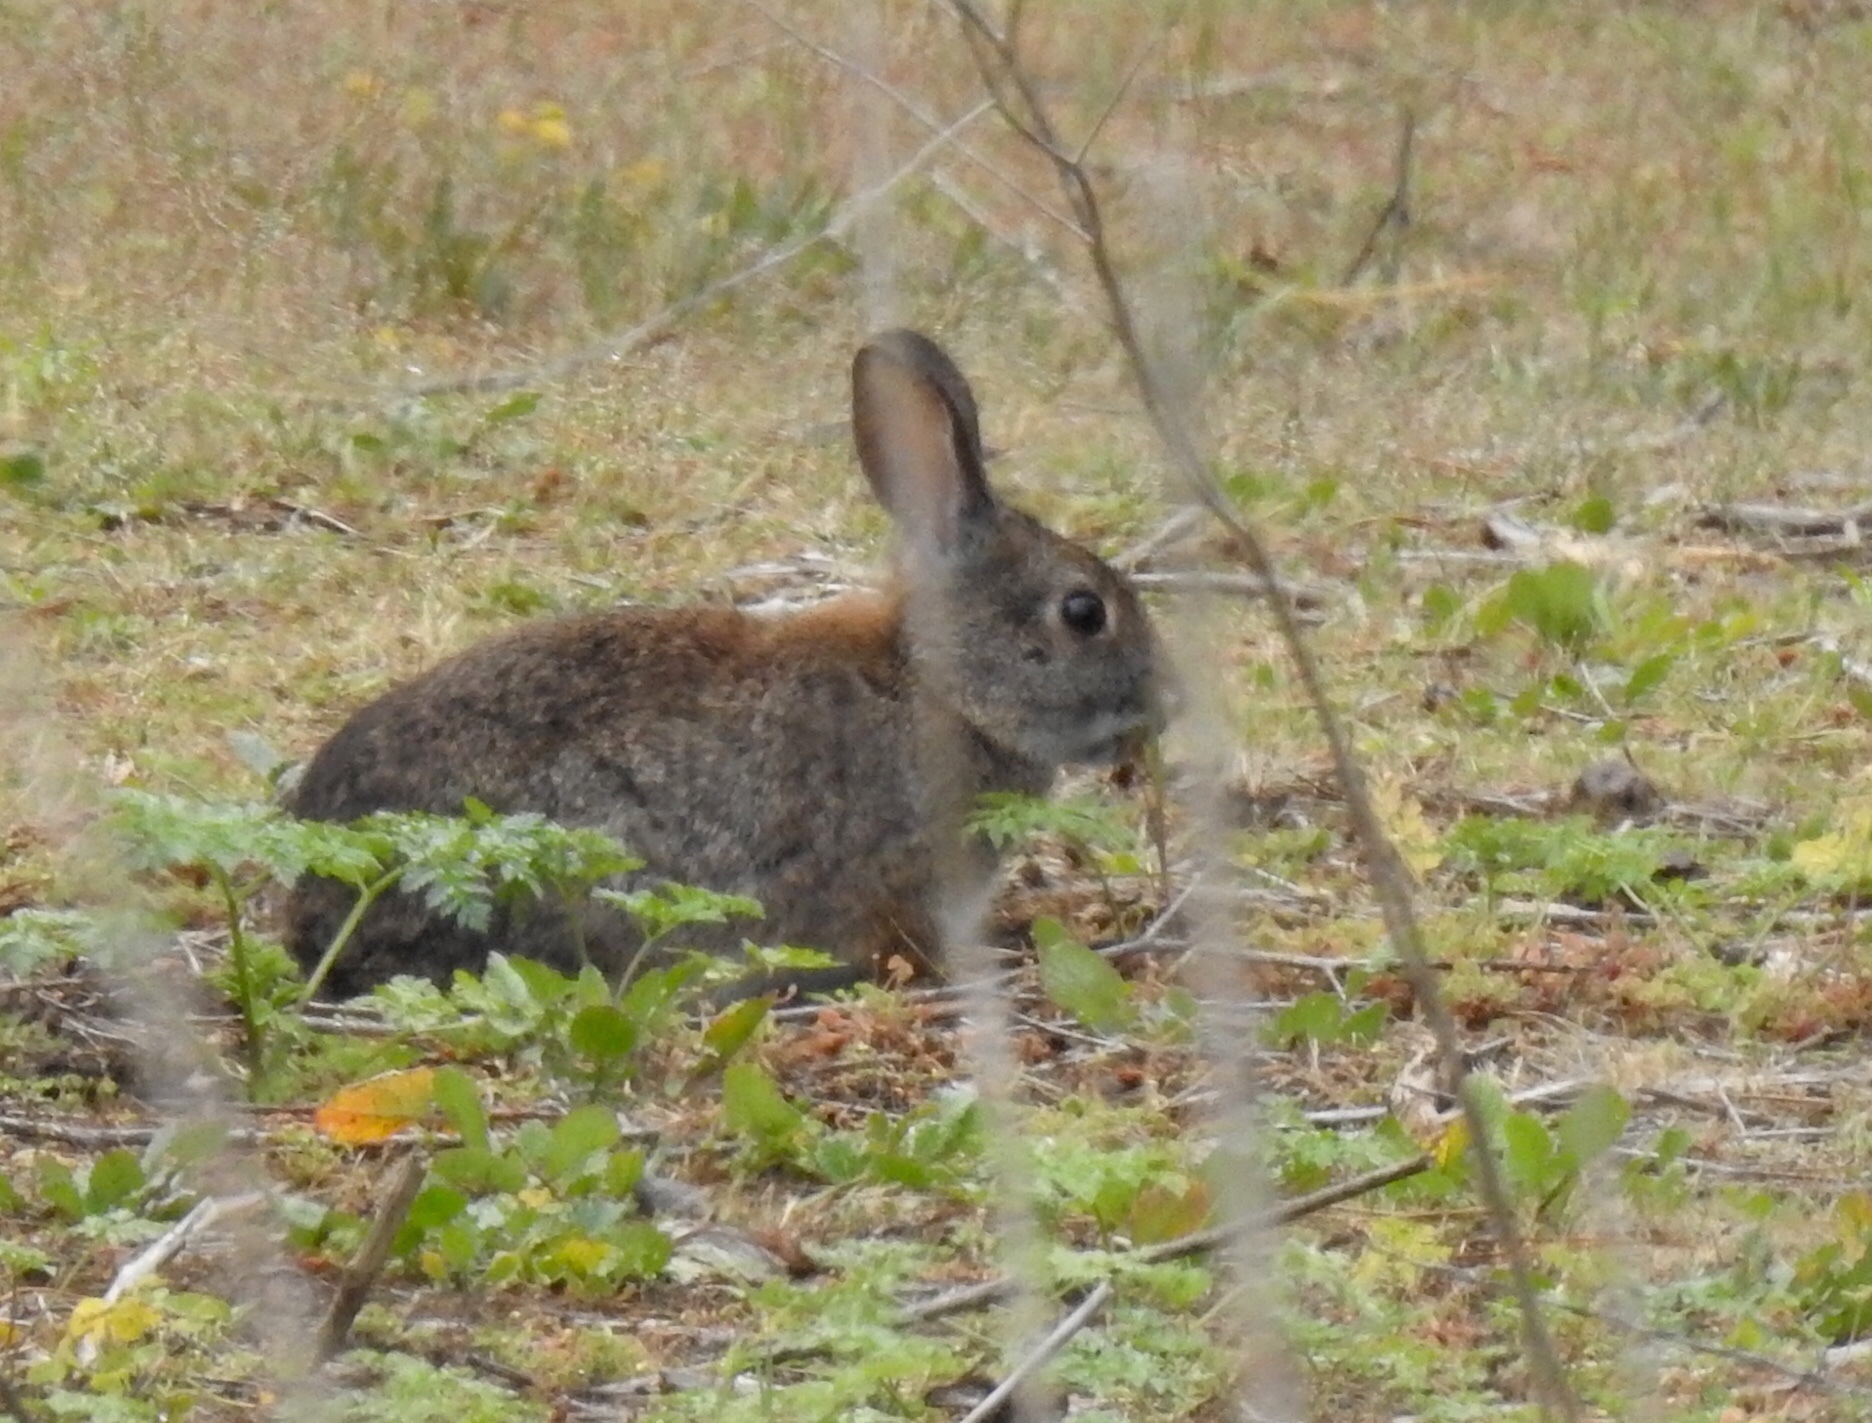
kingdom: Animalia
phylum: Chordata
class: Mammalia
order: Lagomorpha
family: Leporidae
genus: Sylvilagus
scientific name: Sylvilagus bachmani
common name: Brush rabbit
